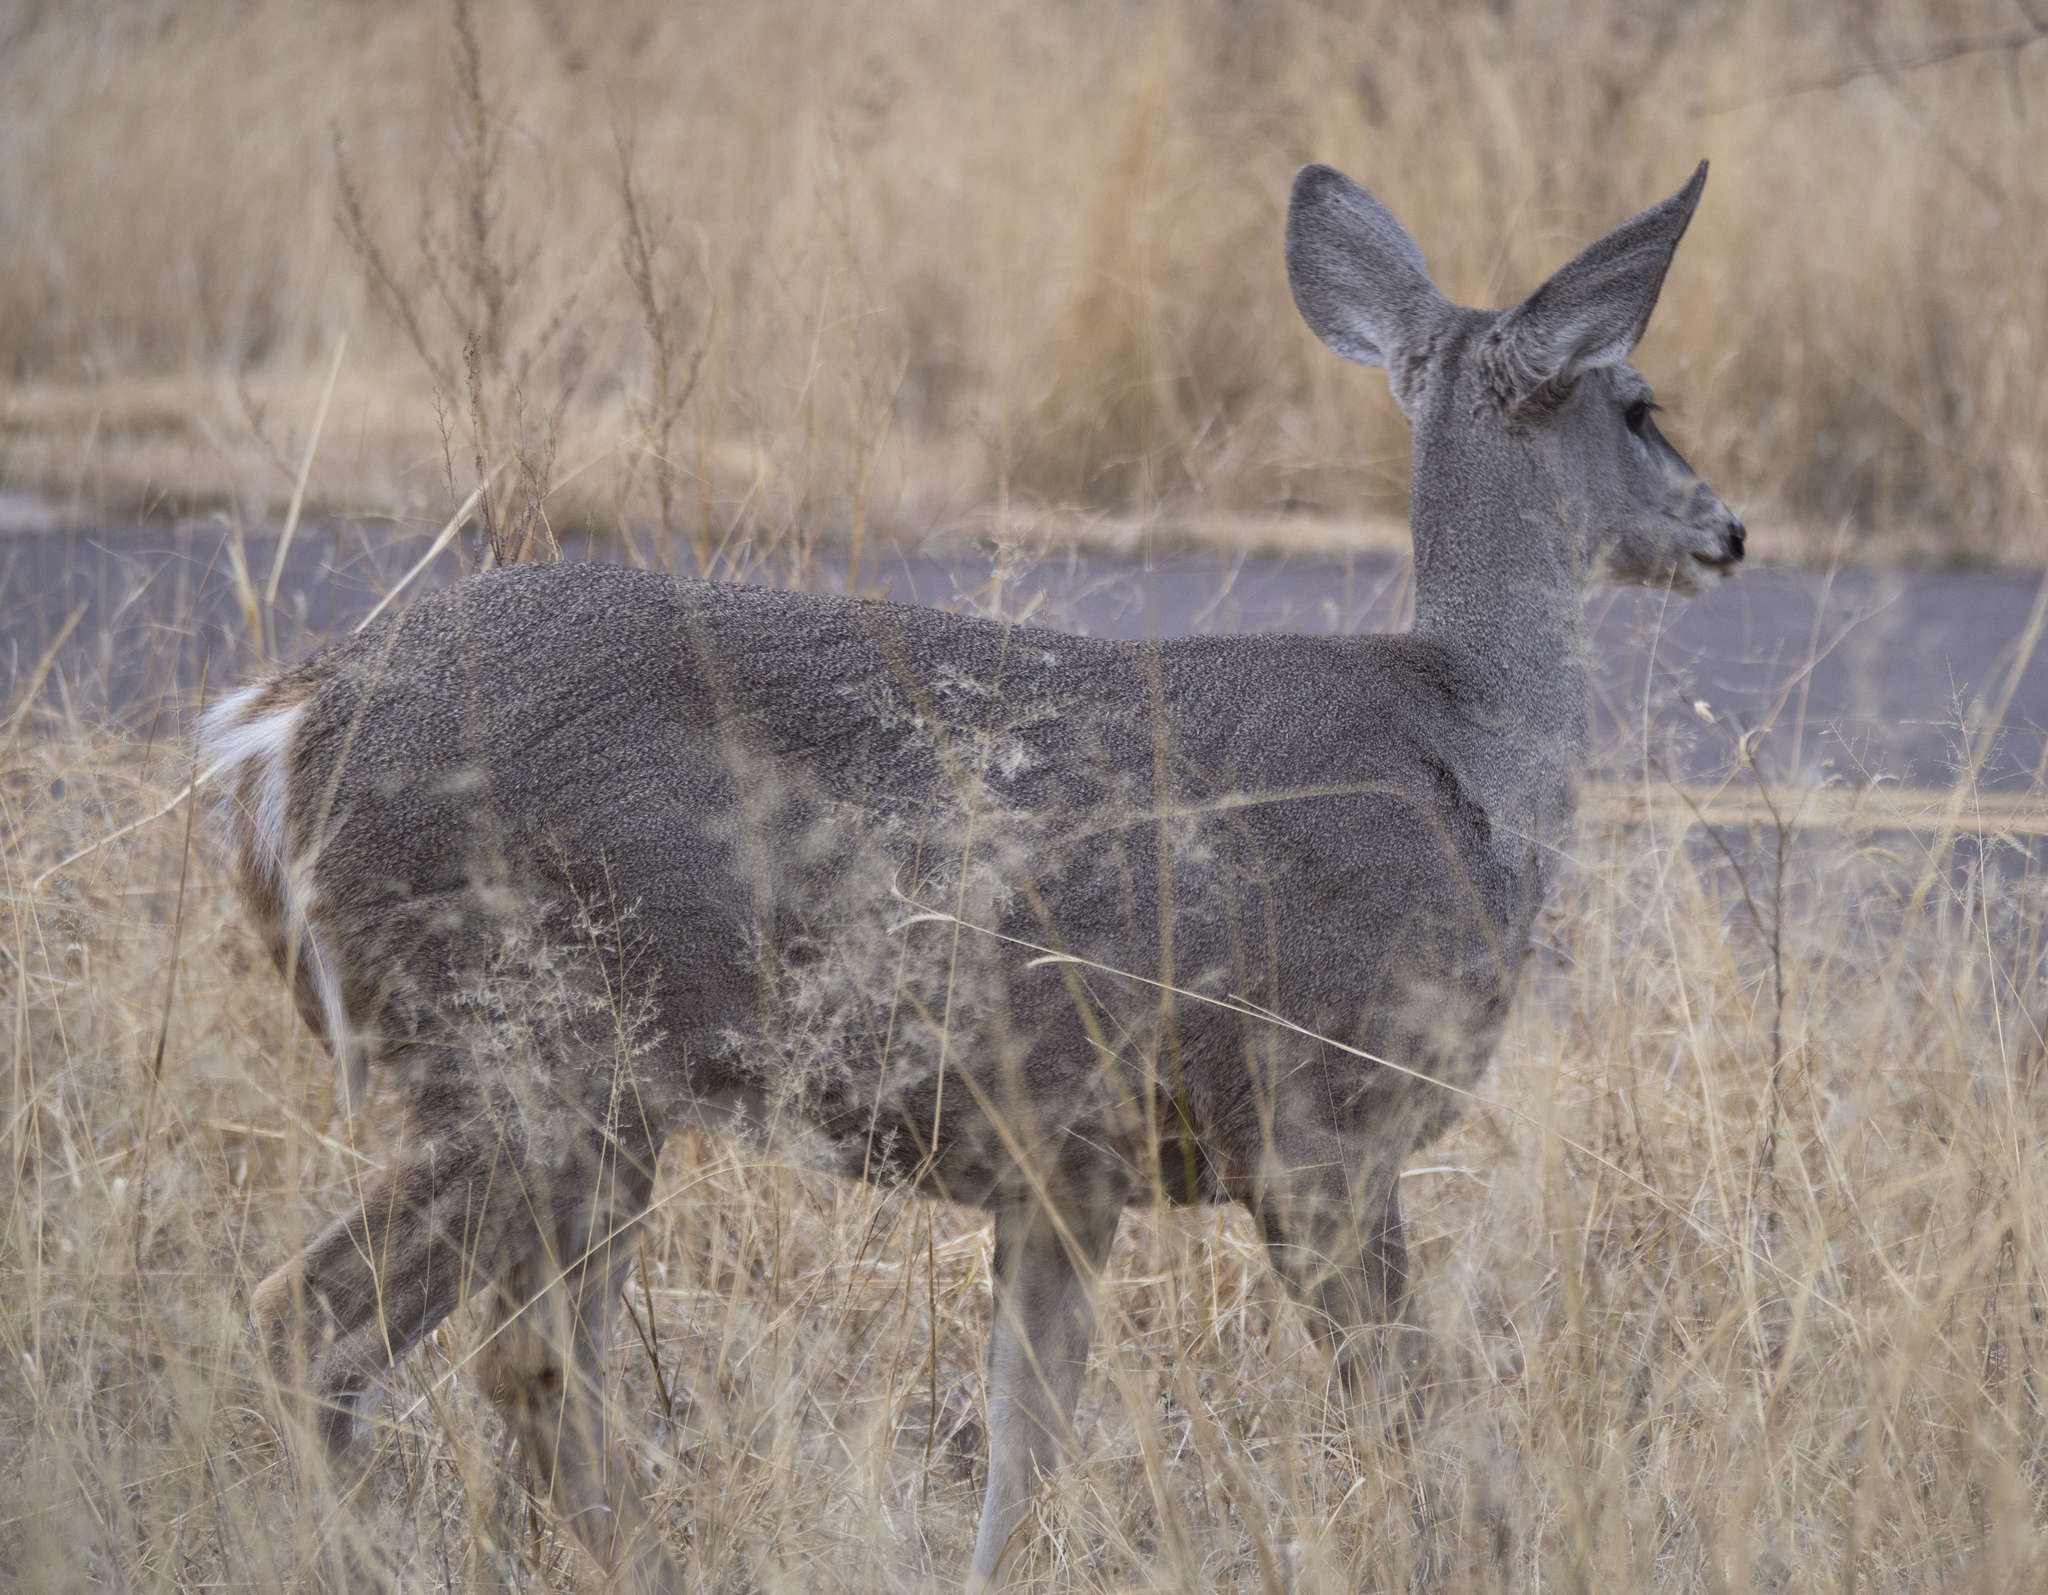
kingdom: Animalia
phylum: Chordata
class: Mammalia
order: Artiodactyla
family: Cervidae
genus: Odocoileus
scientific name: Odocoileus virginianus
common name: White-tailed deer
